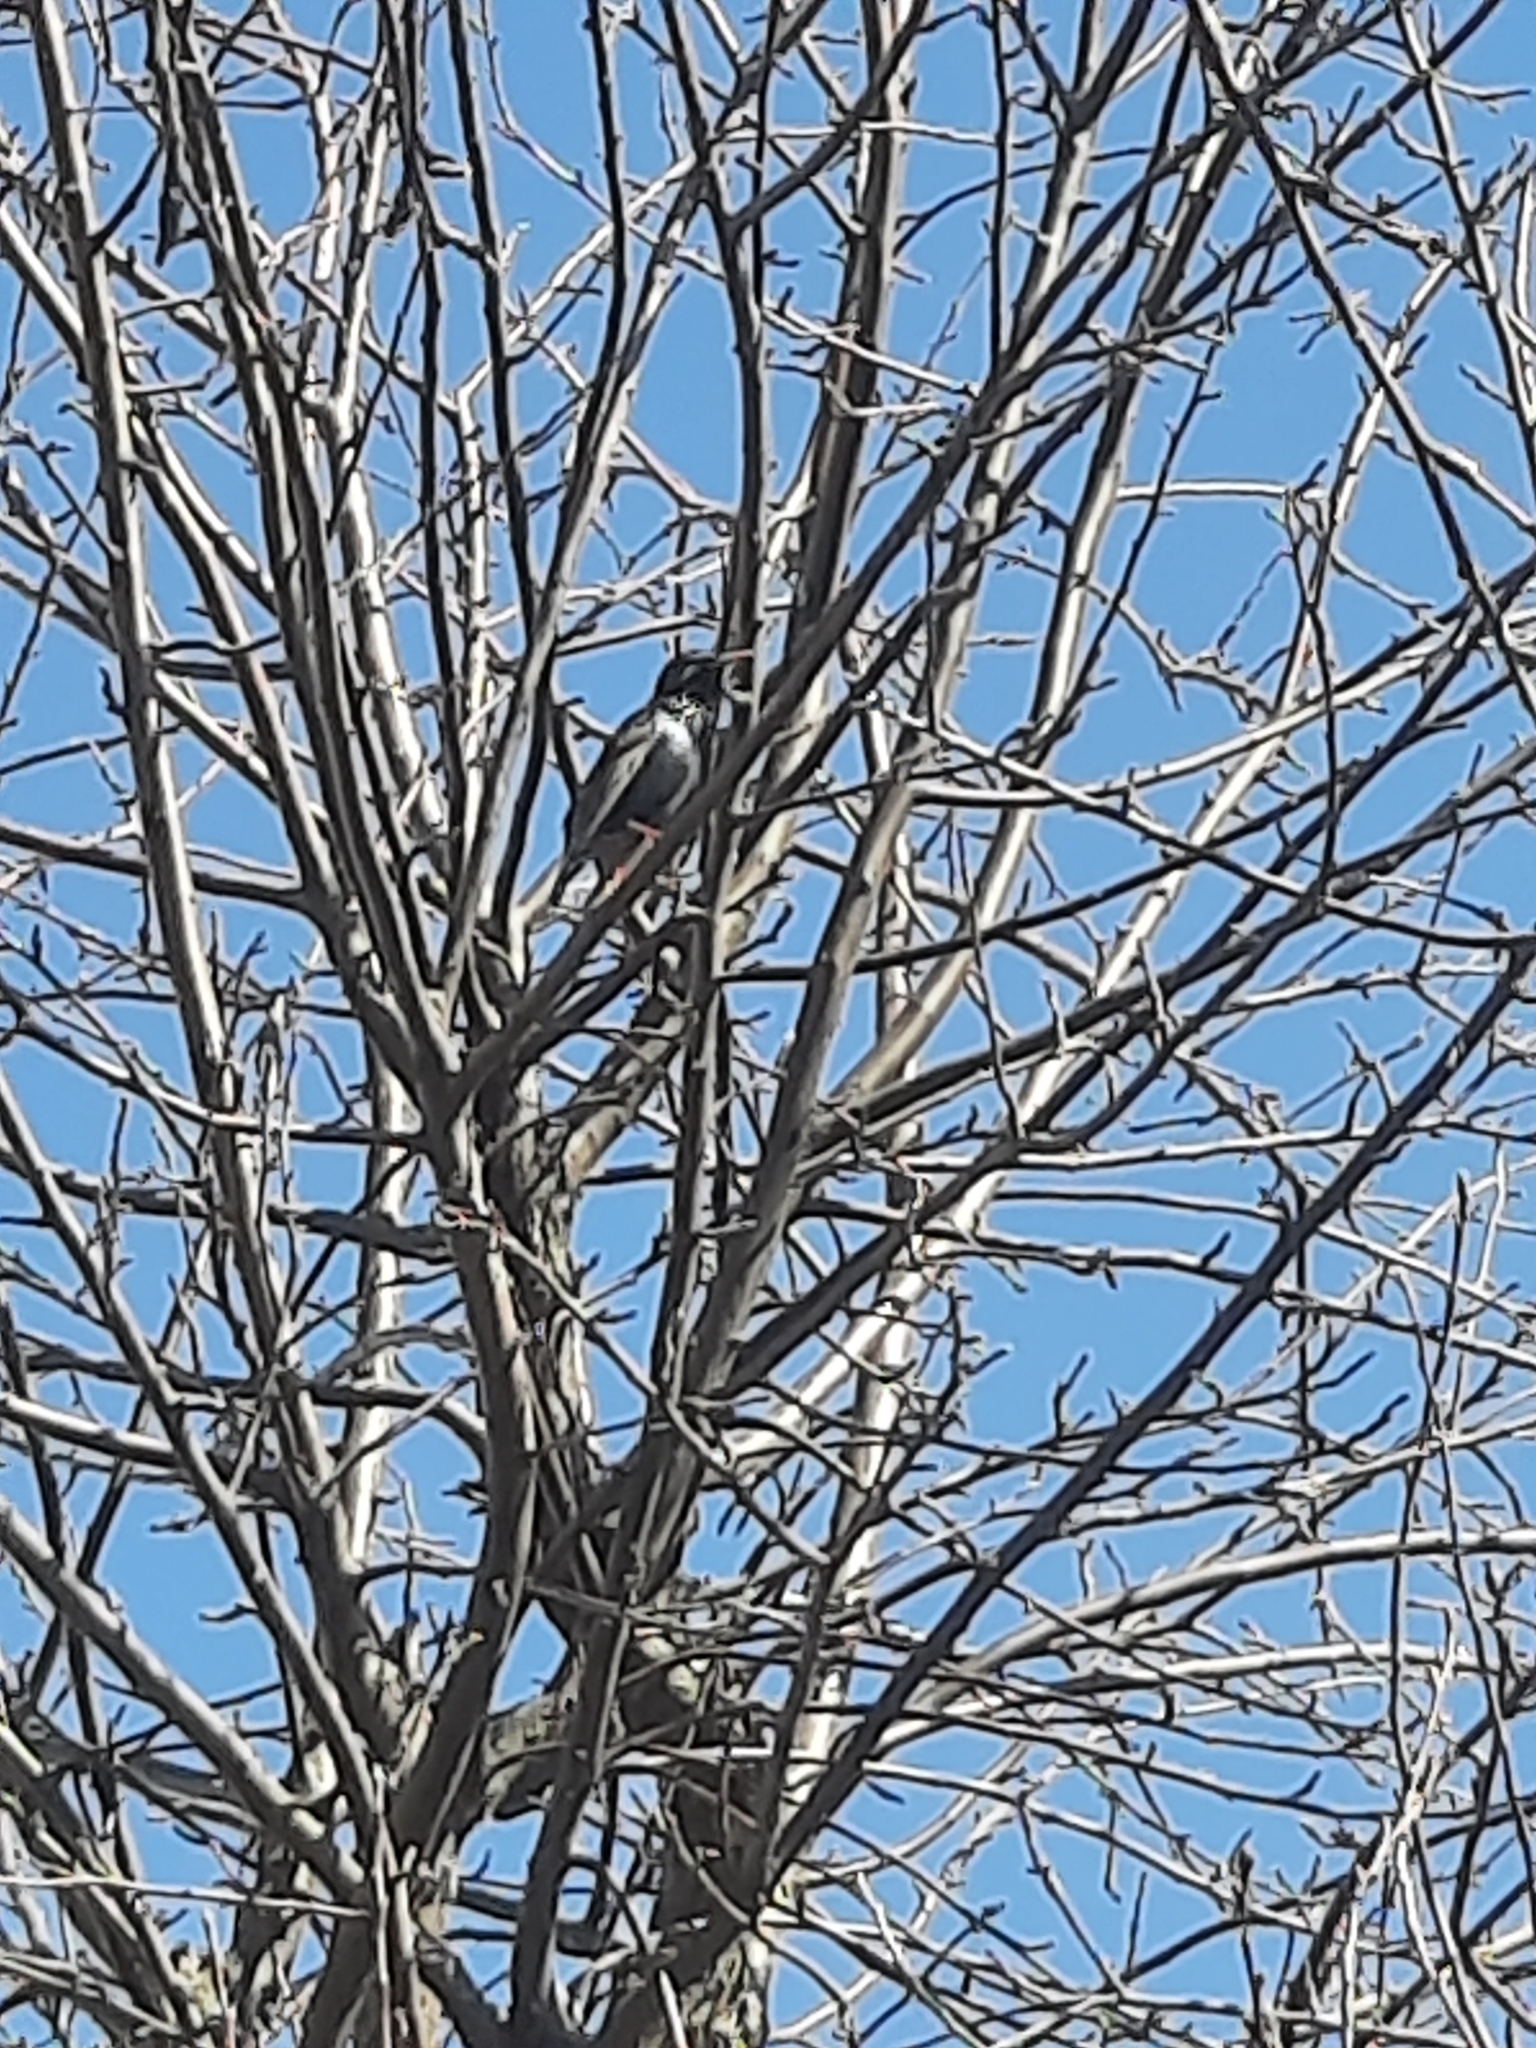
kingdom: Animalia
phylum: Chordata
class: Aves
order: Passeriformes
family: Sturnidae
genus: Sturnus
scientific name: Sturnus vulgaris
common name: Common starling
